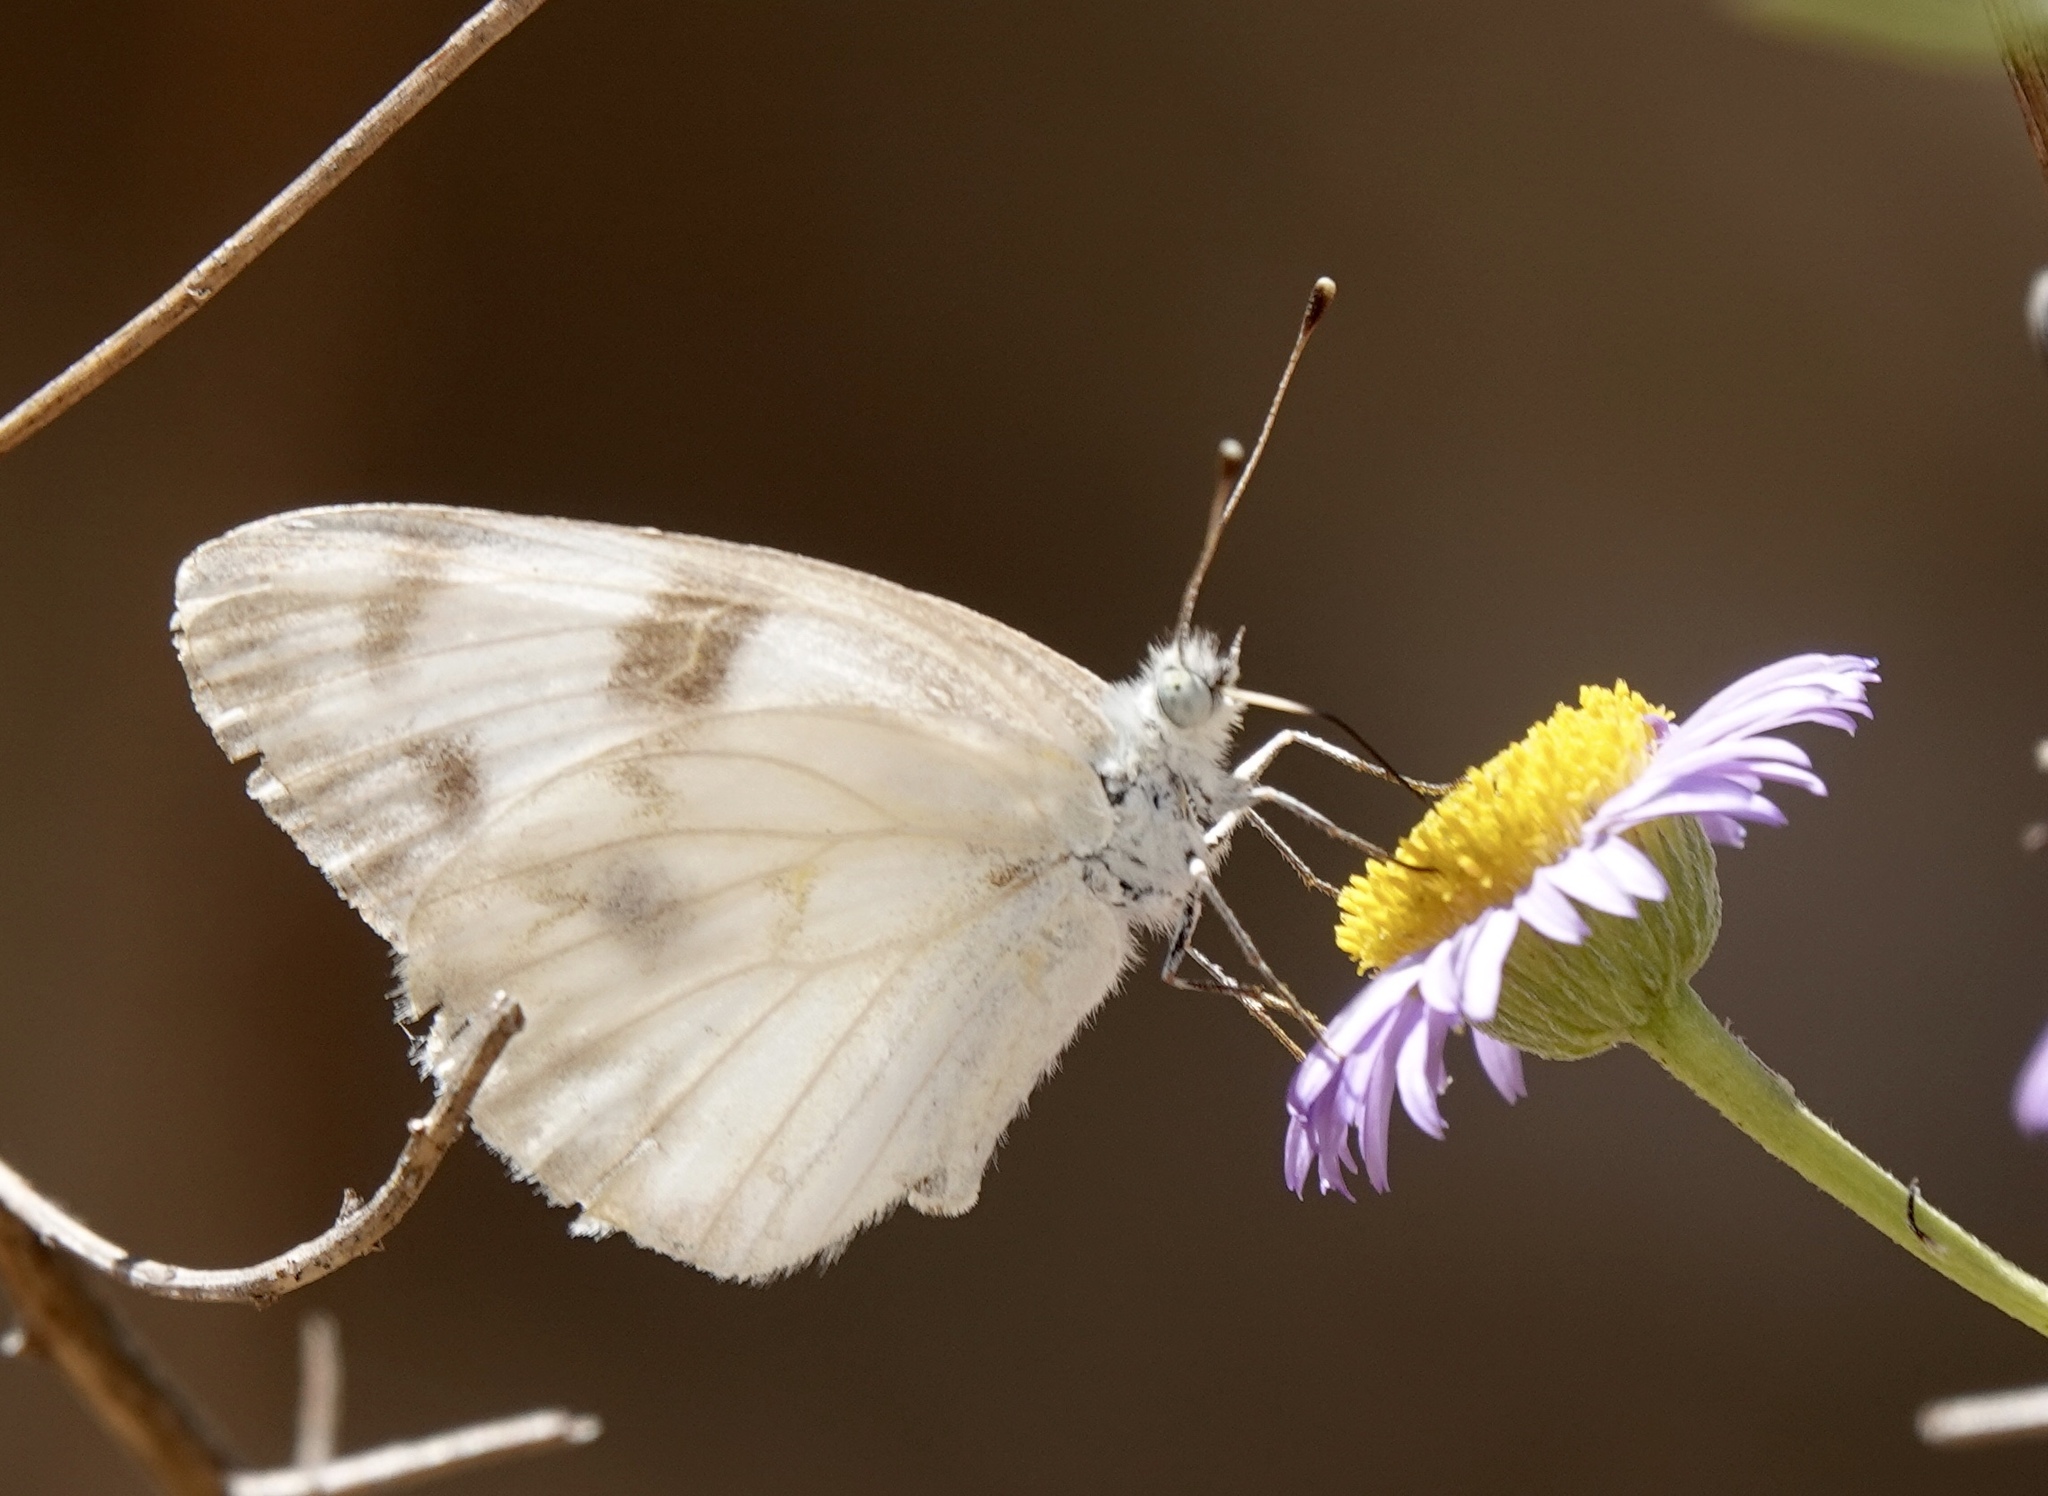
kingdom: Animalia
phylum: Arthropoda
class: Insecta
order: Lepidoptera
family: Pieridae
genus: Pontia
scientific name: Pontia protodice
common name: Checkered white
